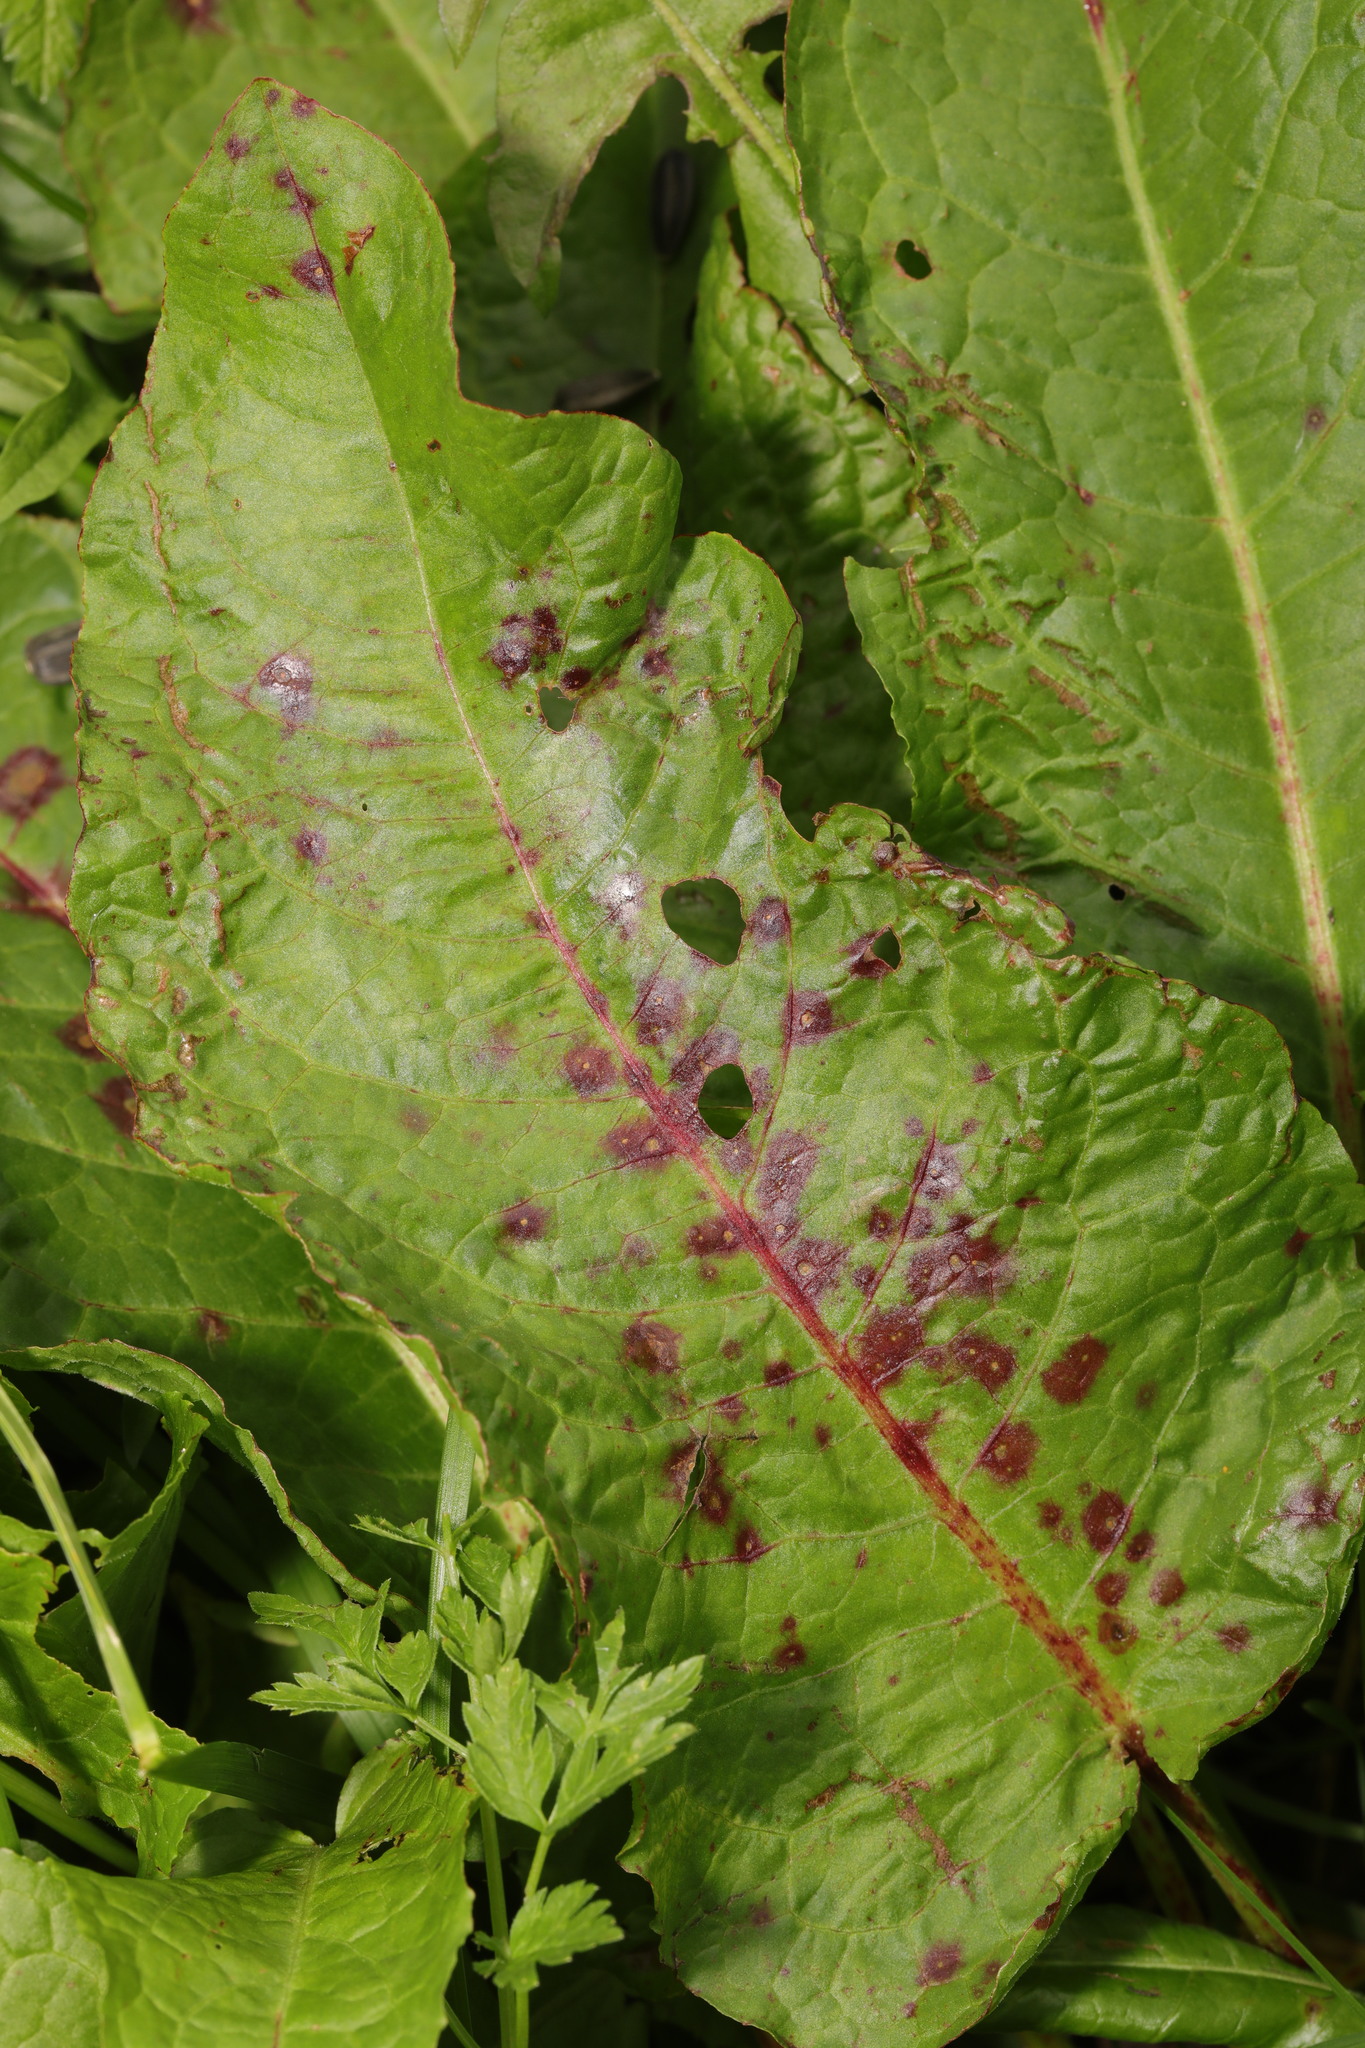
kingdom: Plantae
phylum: Tracheophyta
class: Magnoliopsida
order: Caryophyllales
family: Polygonaceae
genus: Rumex
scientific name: Rumex obtusifolius
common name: Bitter dock
